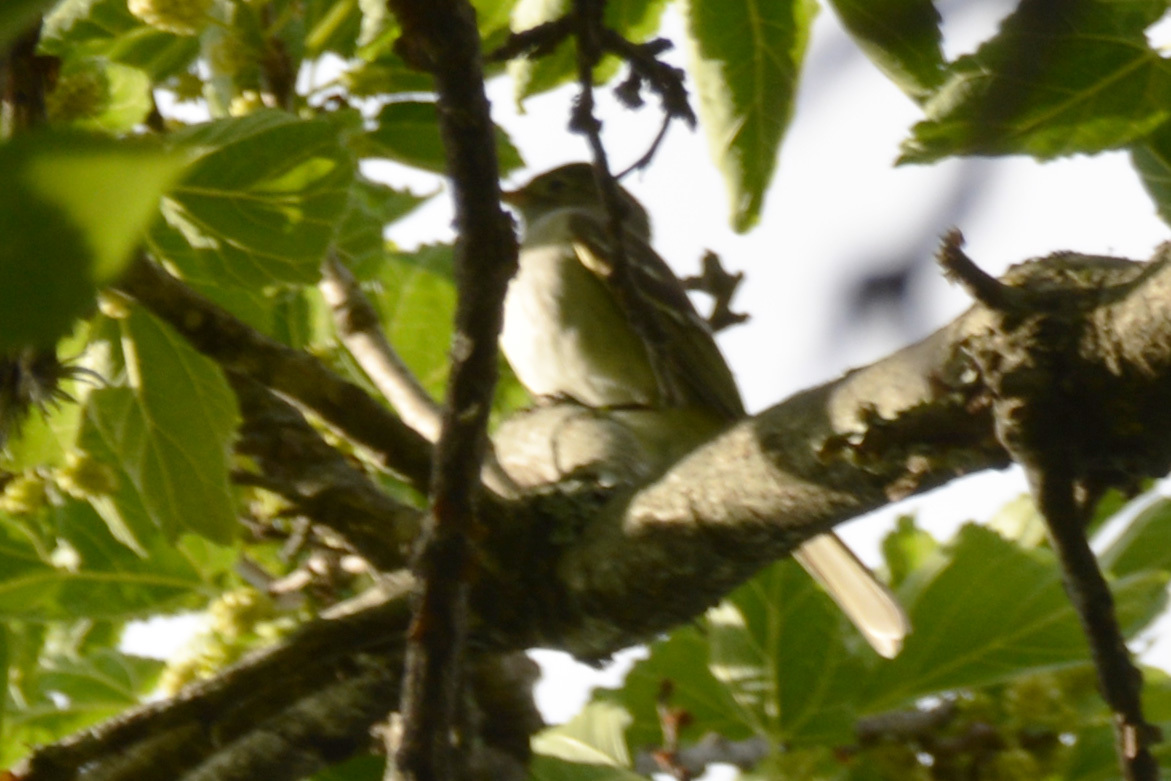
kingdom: Animalia
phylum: Chordata
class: Aves
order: Passeriformes
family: Tyrannidae
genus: Elaenia
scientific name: Elaenia parvirostris
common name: Small-billed elaenia
